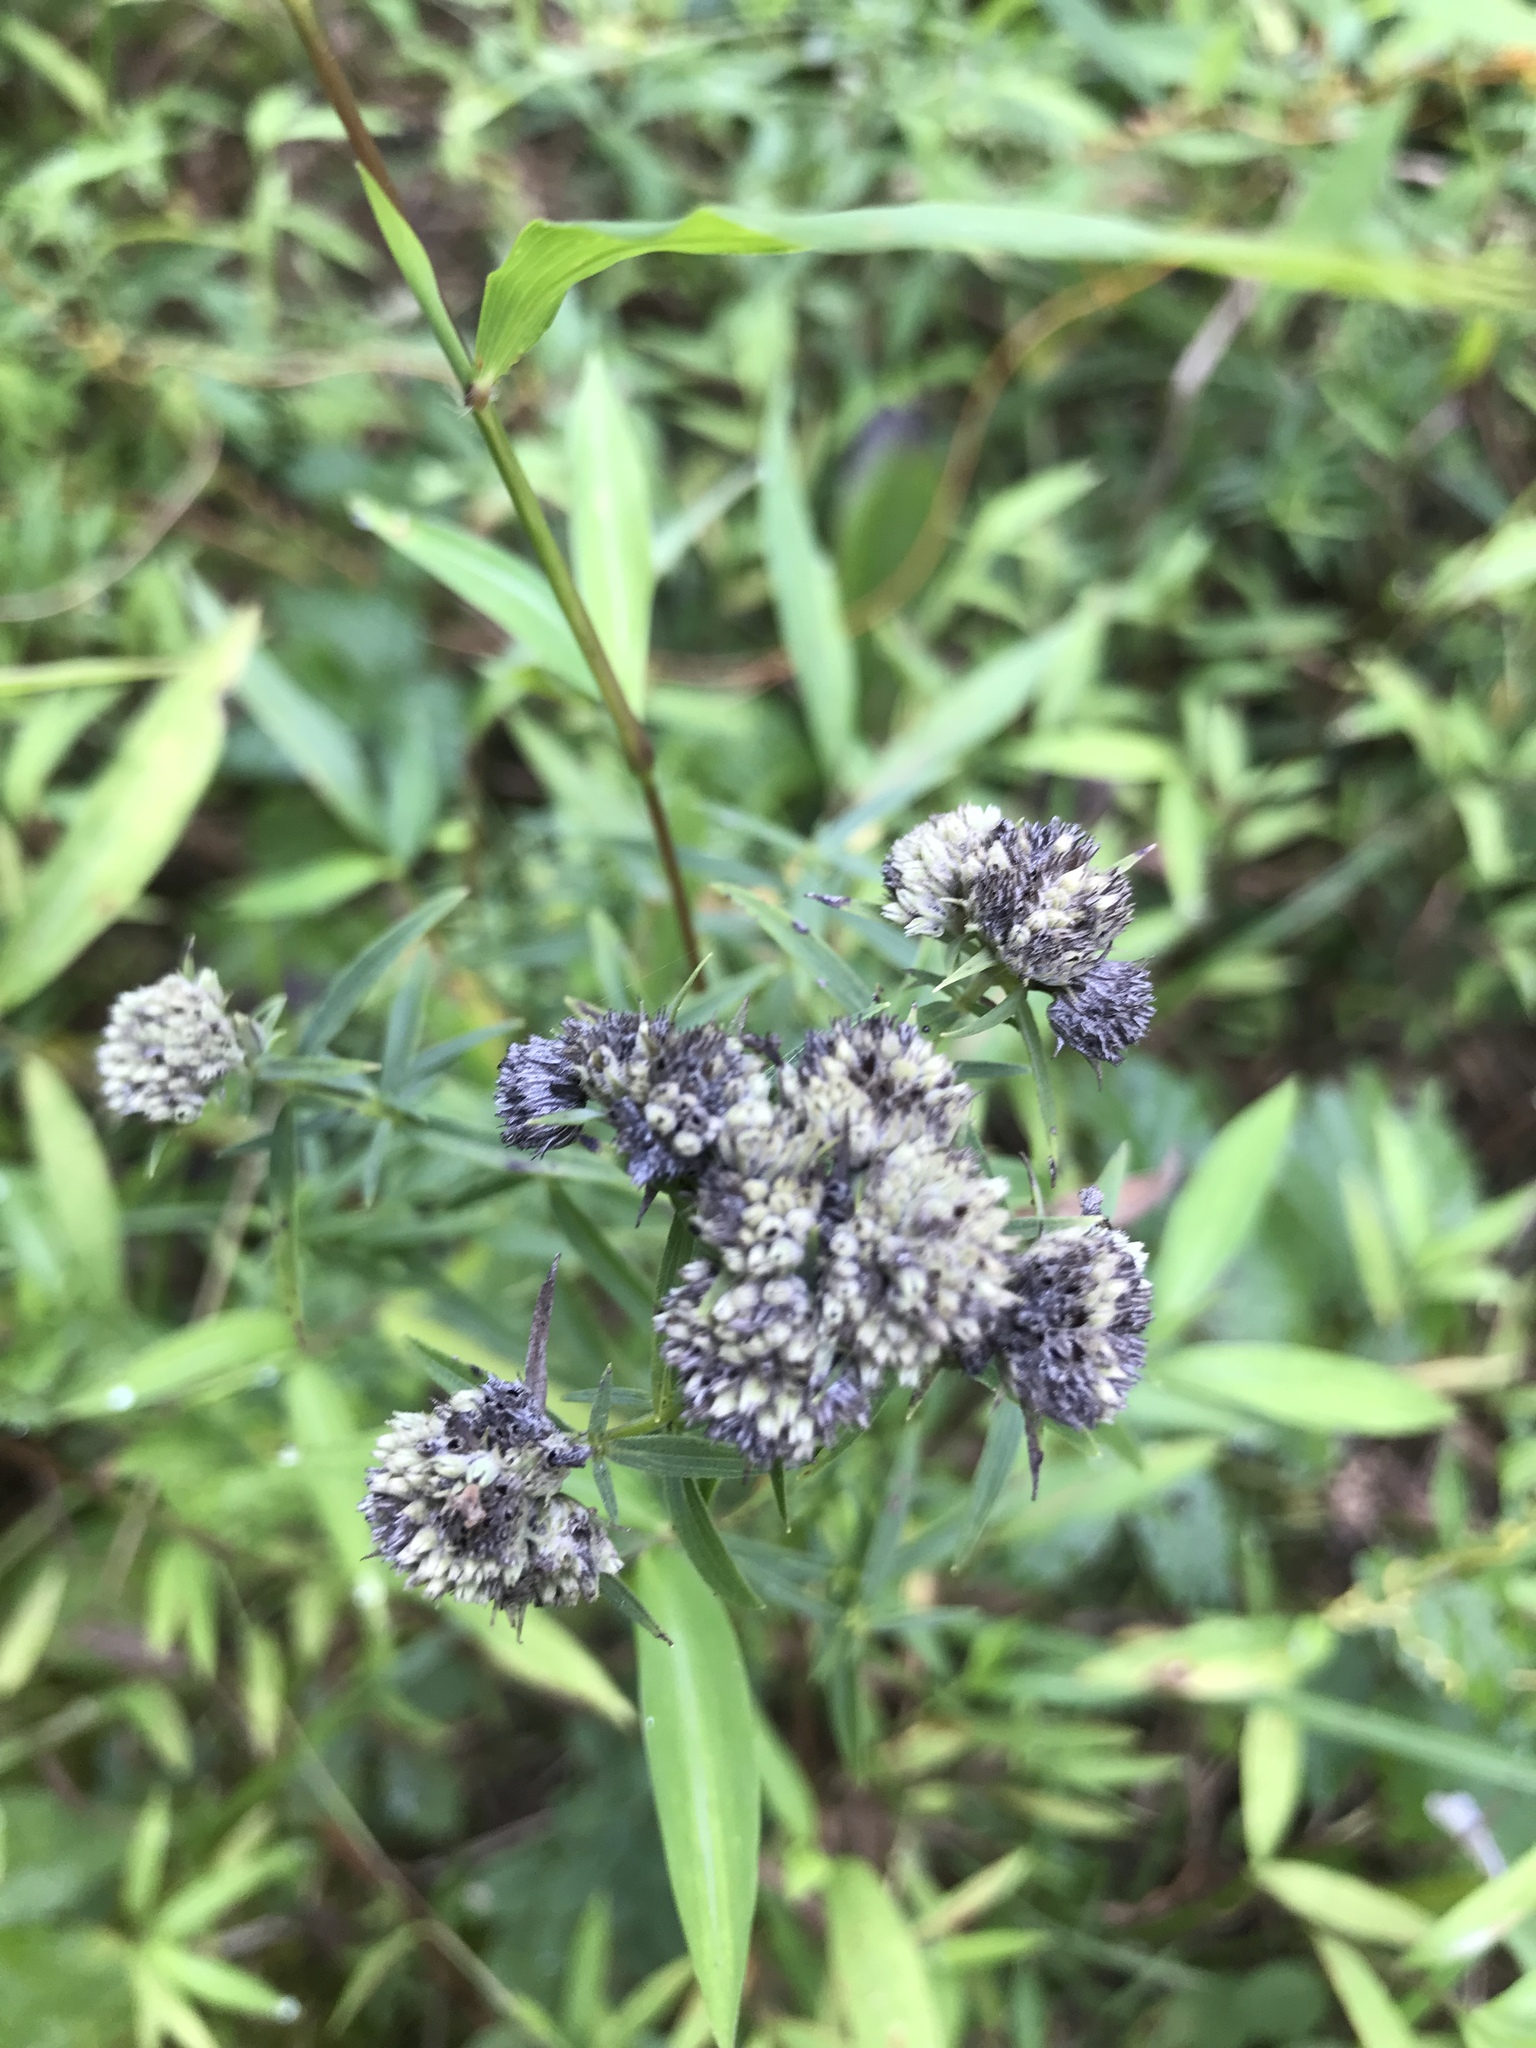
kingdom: Plantae
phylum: Tracheophyta
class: Magnoliopsida
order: Lamiales
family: Lamiaceae
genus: Pycnanthemum
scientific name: Pycnanthemum tenuifolium
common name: Narrow-leaf mountain-mint
